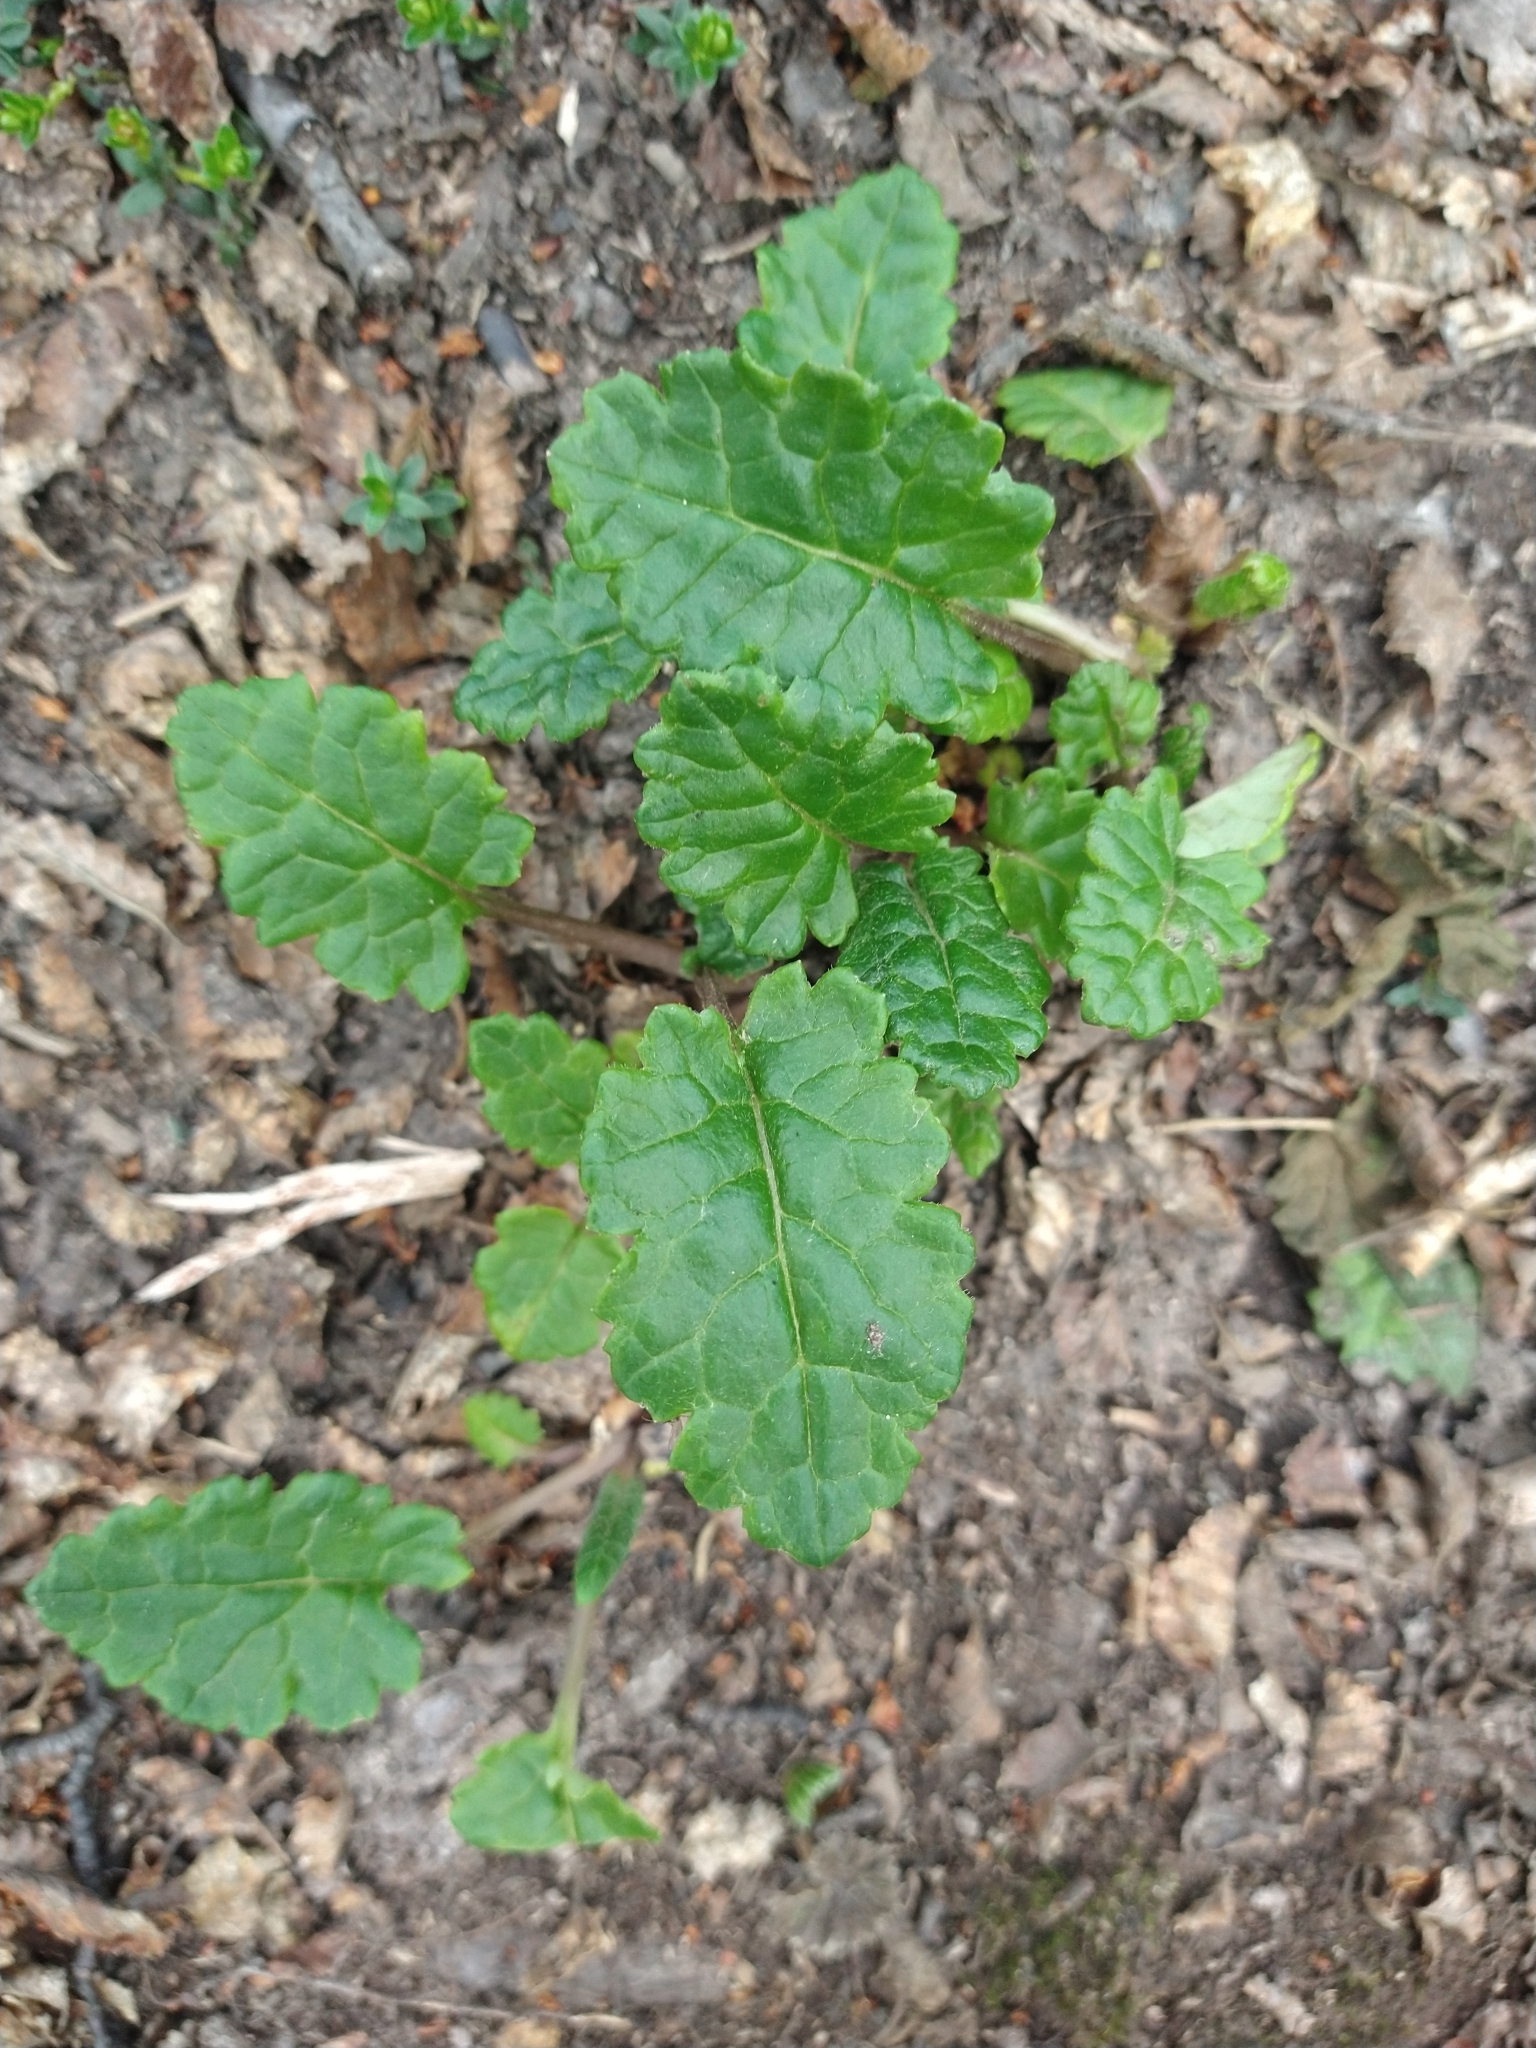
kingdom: Plantae
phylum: Tracheophyta
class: Magnoliopsida
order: Asterales
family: Asteraceae
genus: Iocenes
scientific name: Iocenes virens
